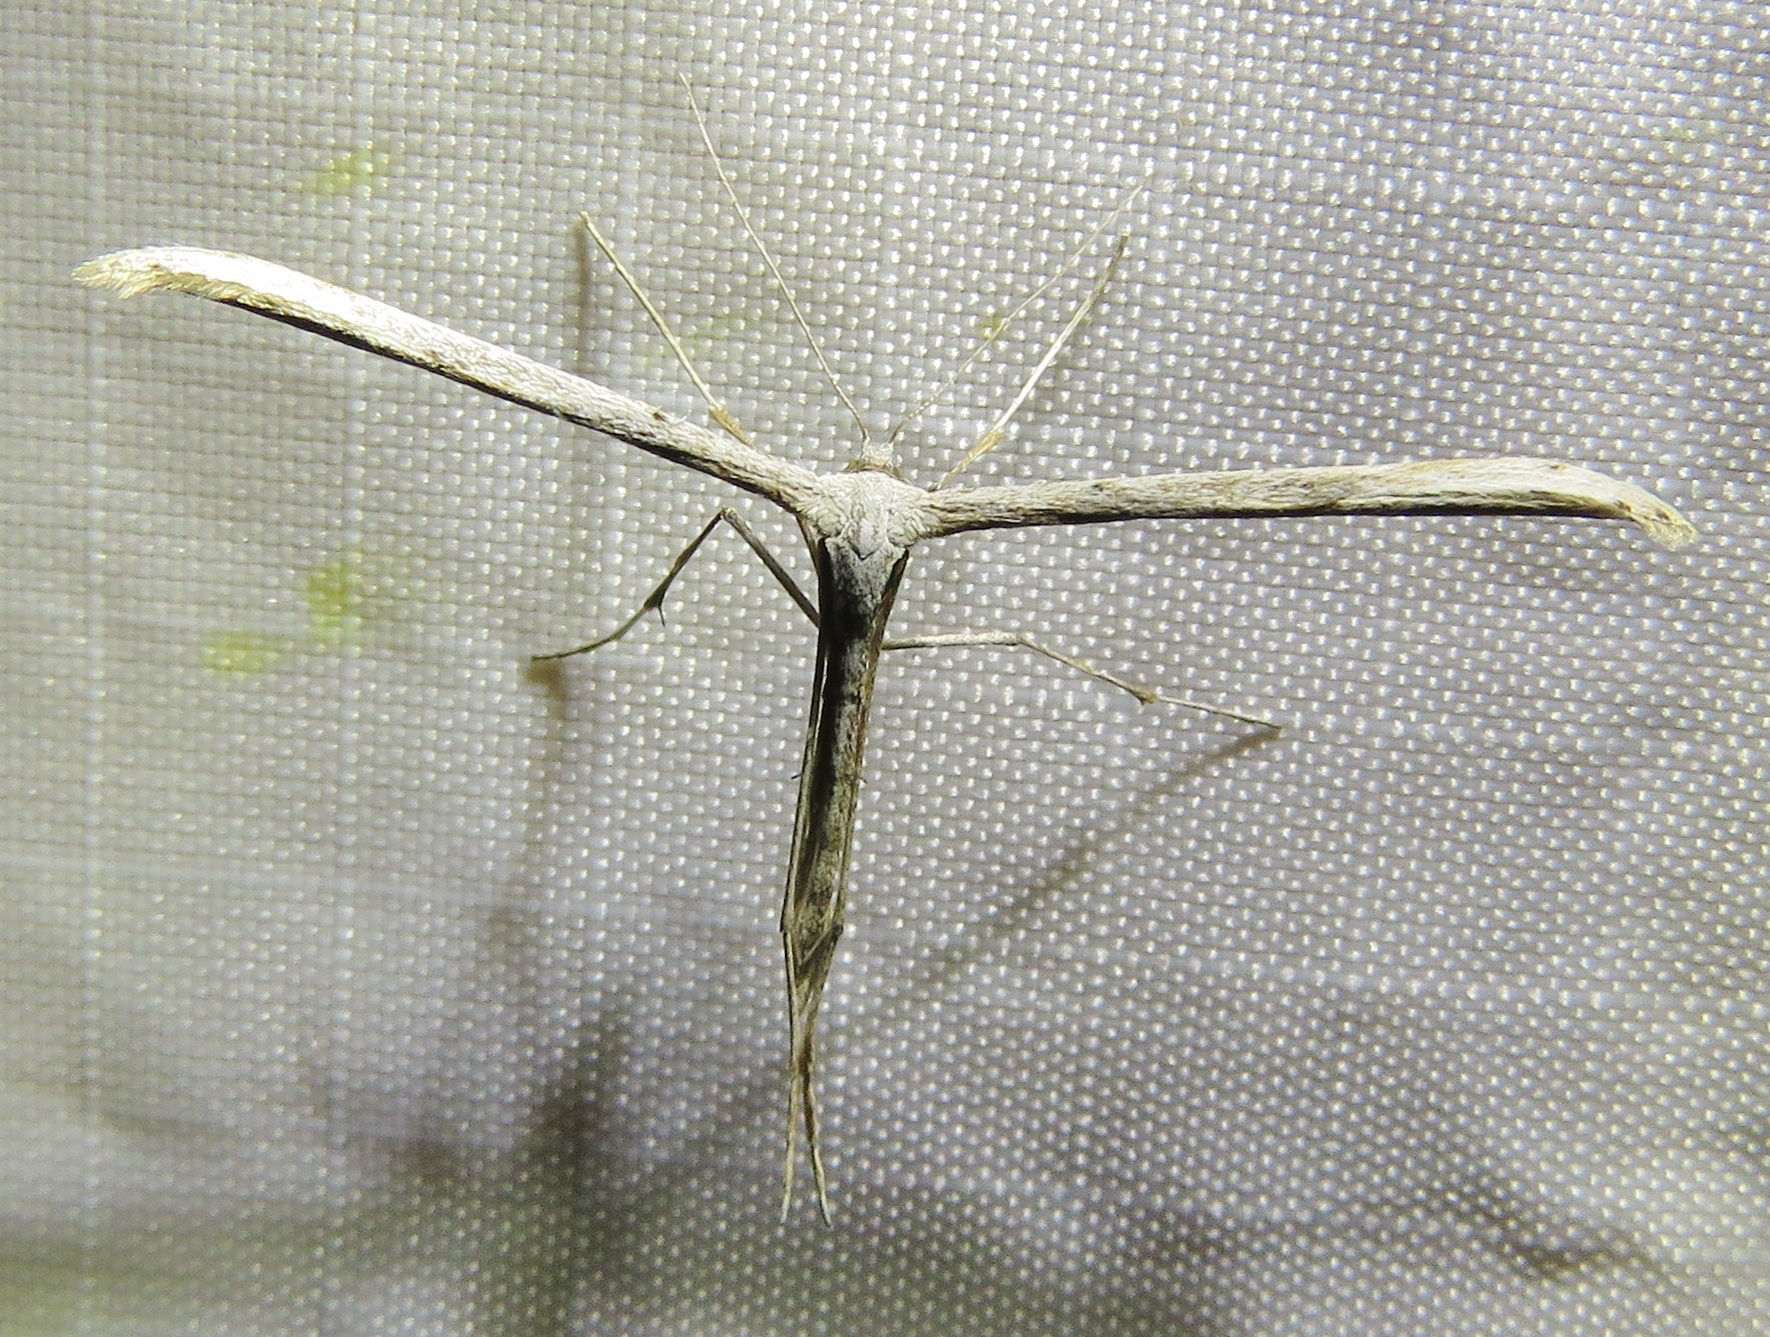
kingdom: Animalia
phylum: Arthropoda
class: Insecta
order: Lepidoptera
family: Pterophoridae
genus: Emmelina
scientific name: Emmelina monodactyla
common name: Common plume
